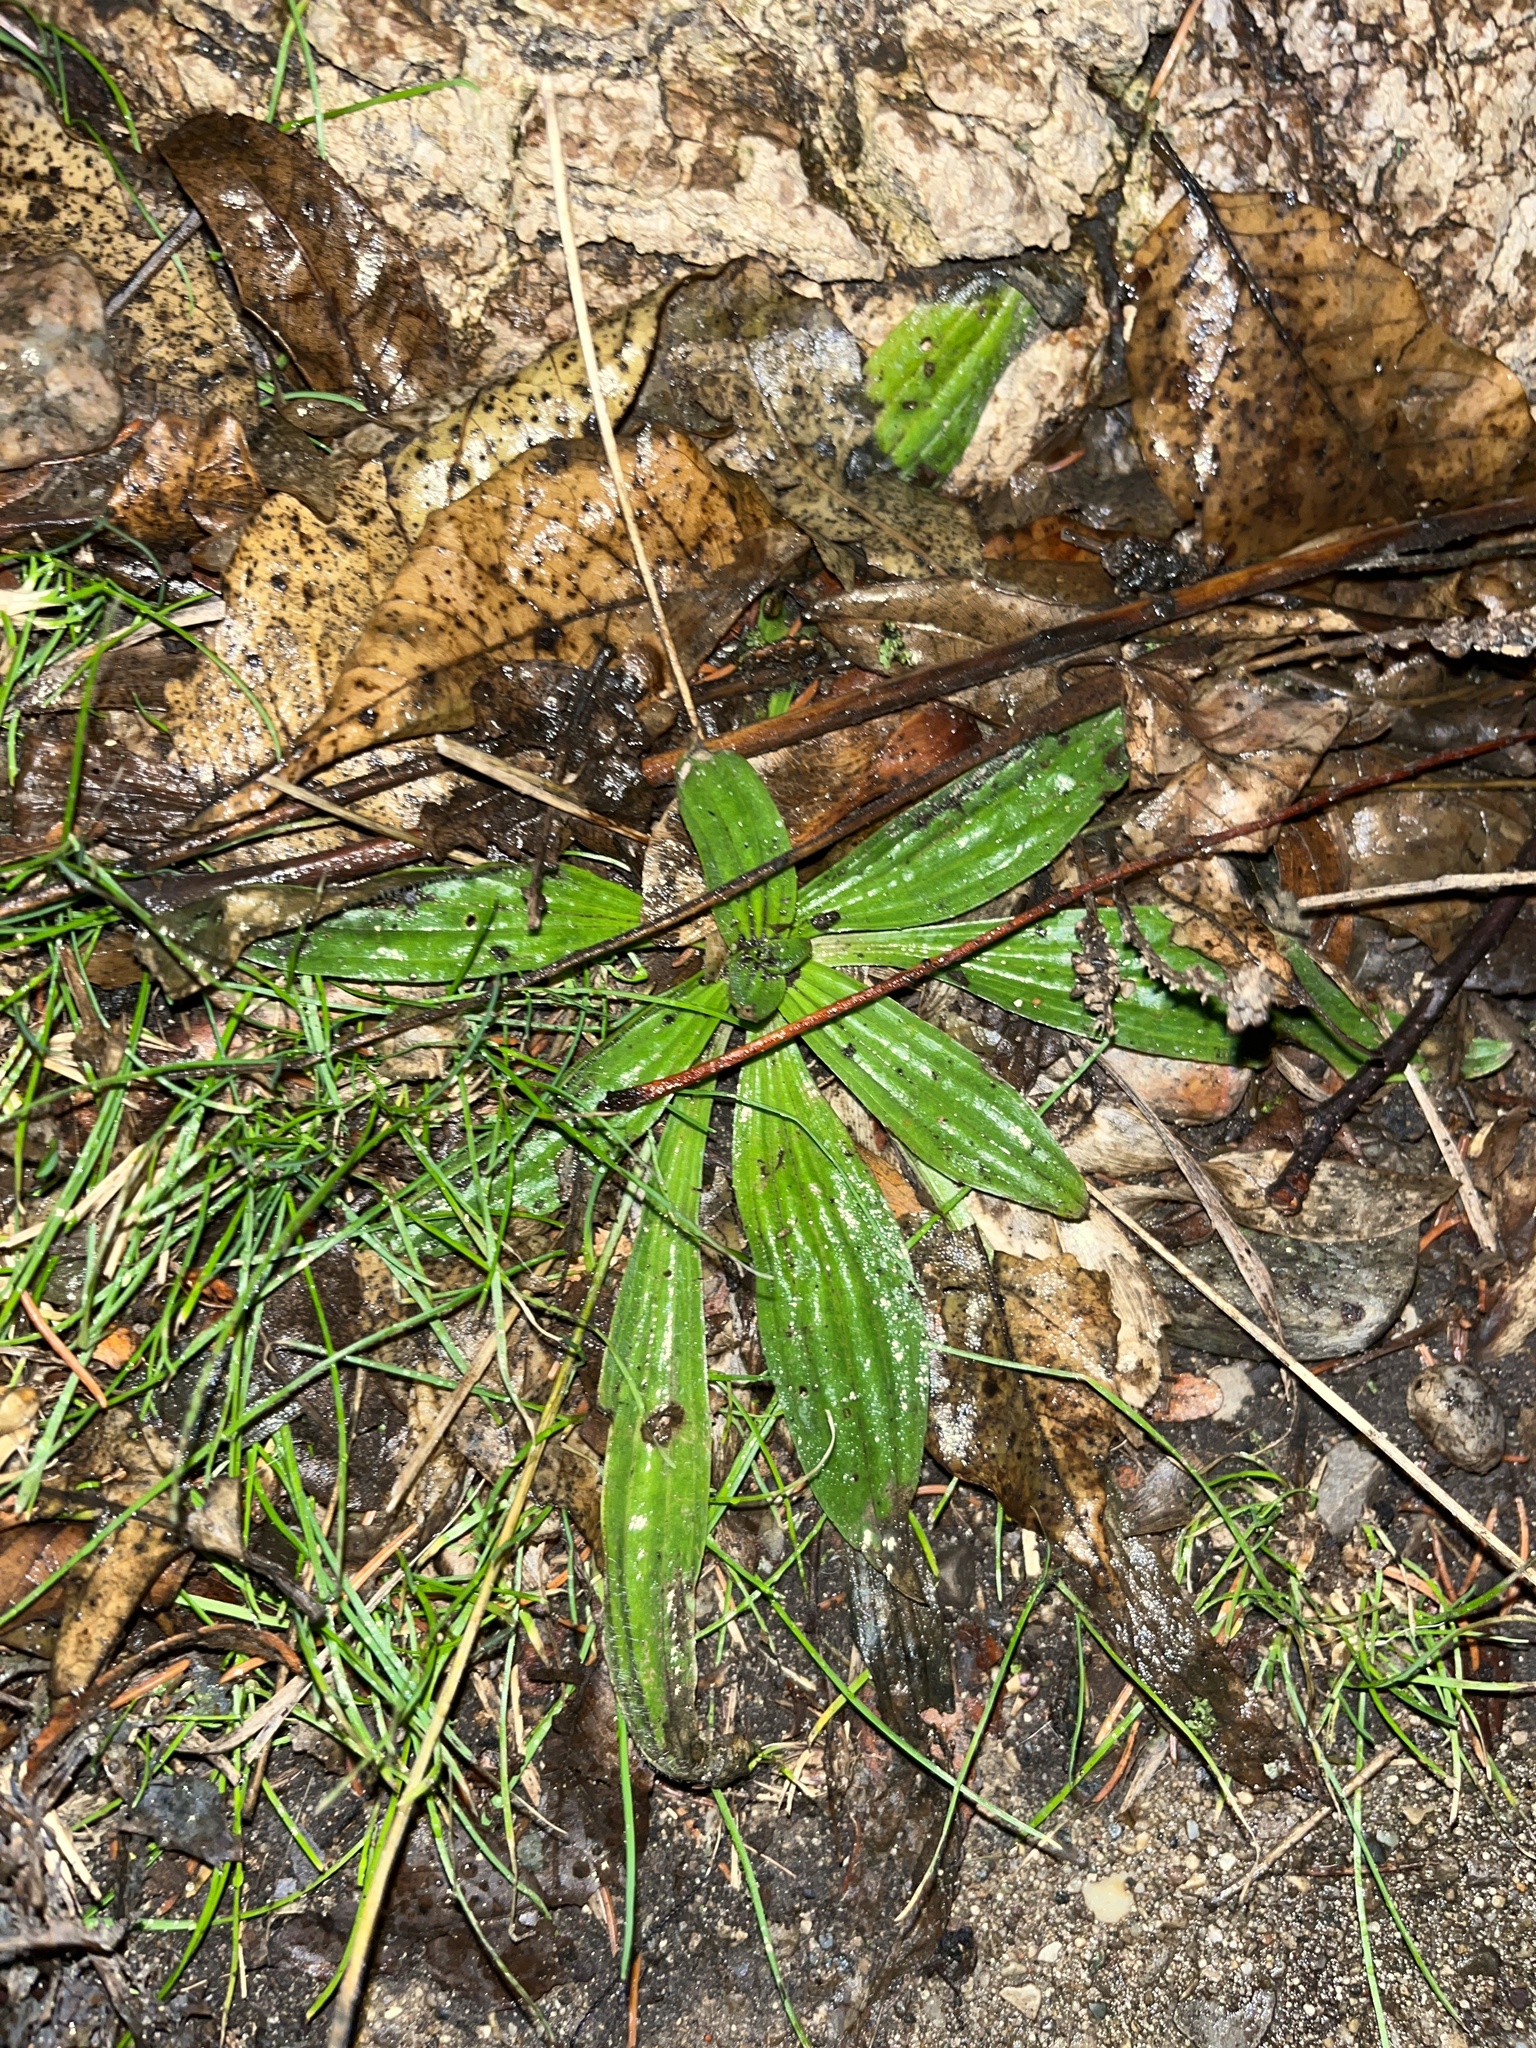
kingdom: Plantae
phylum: Tracheophyta
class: Magnoliopsida
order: Lamiales
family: Plantaginaceae
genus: Plantago
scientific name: Plantago lanceolata
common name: Ribwort plantain
